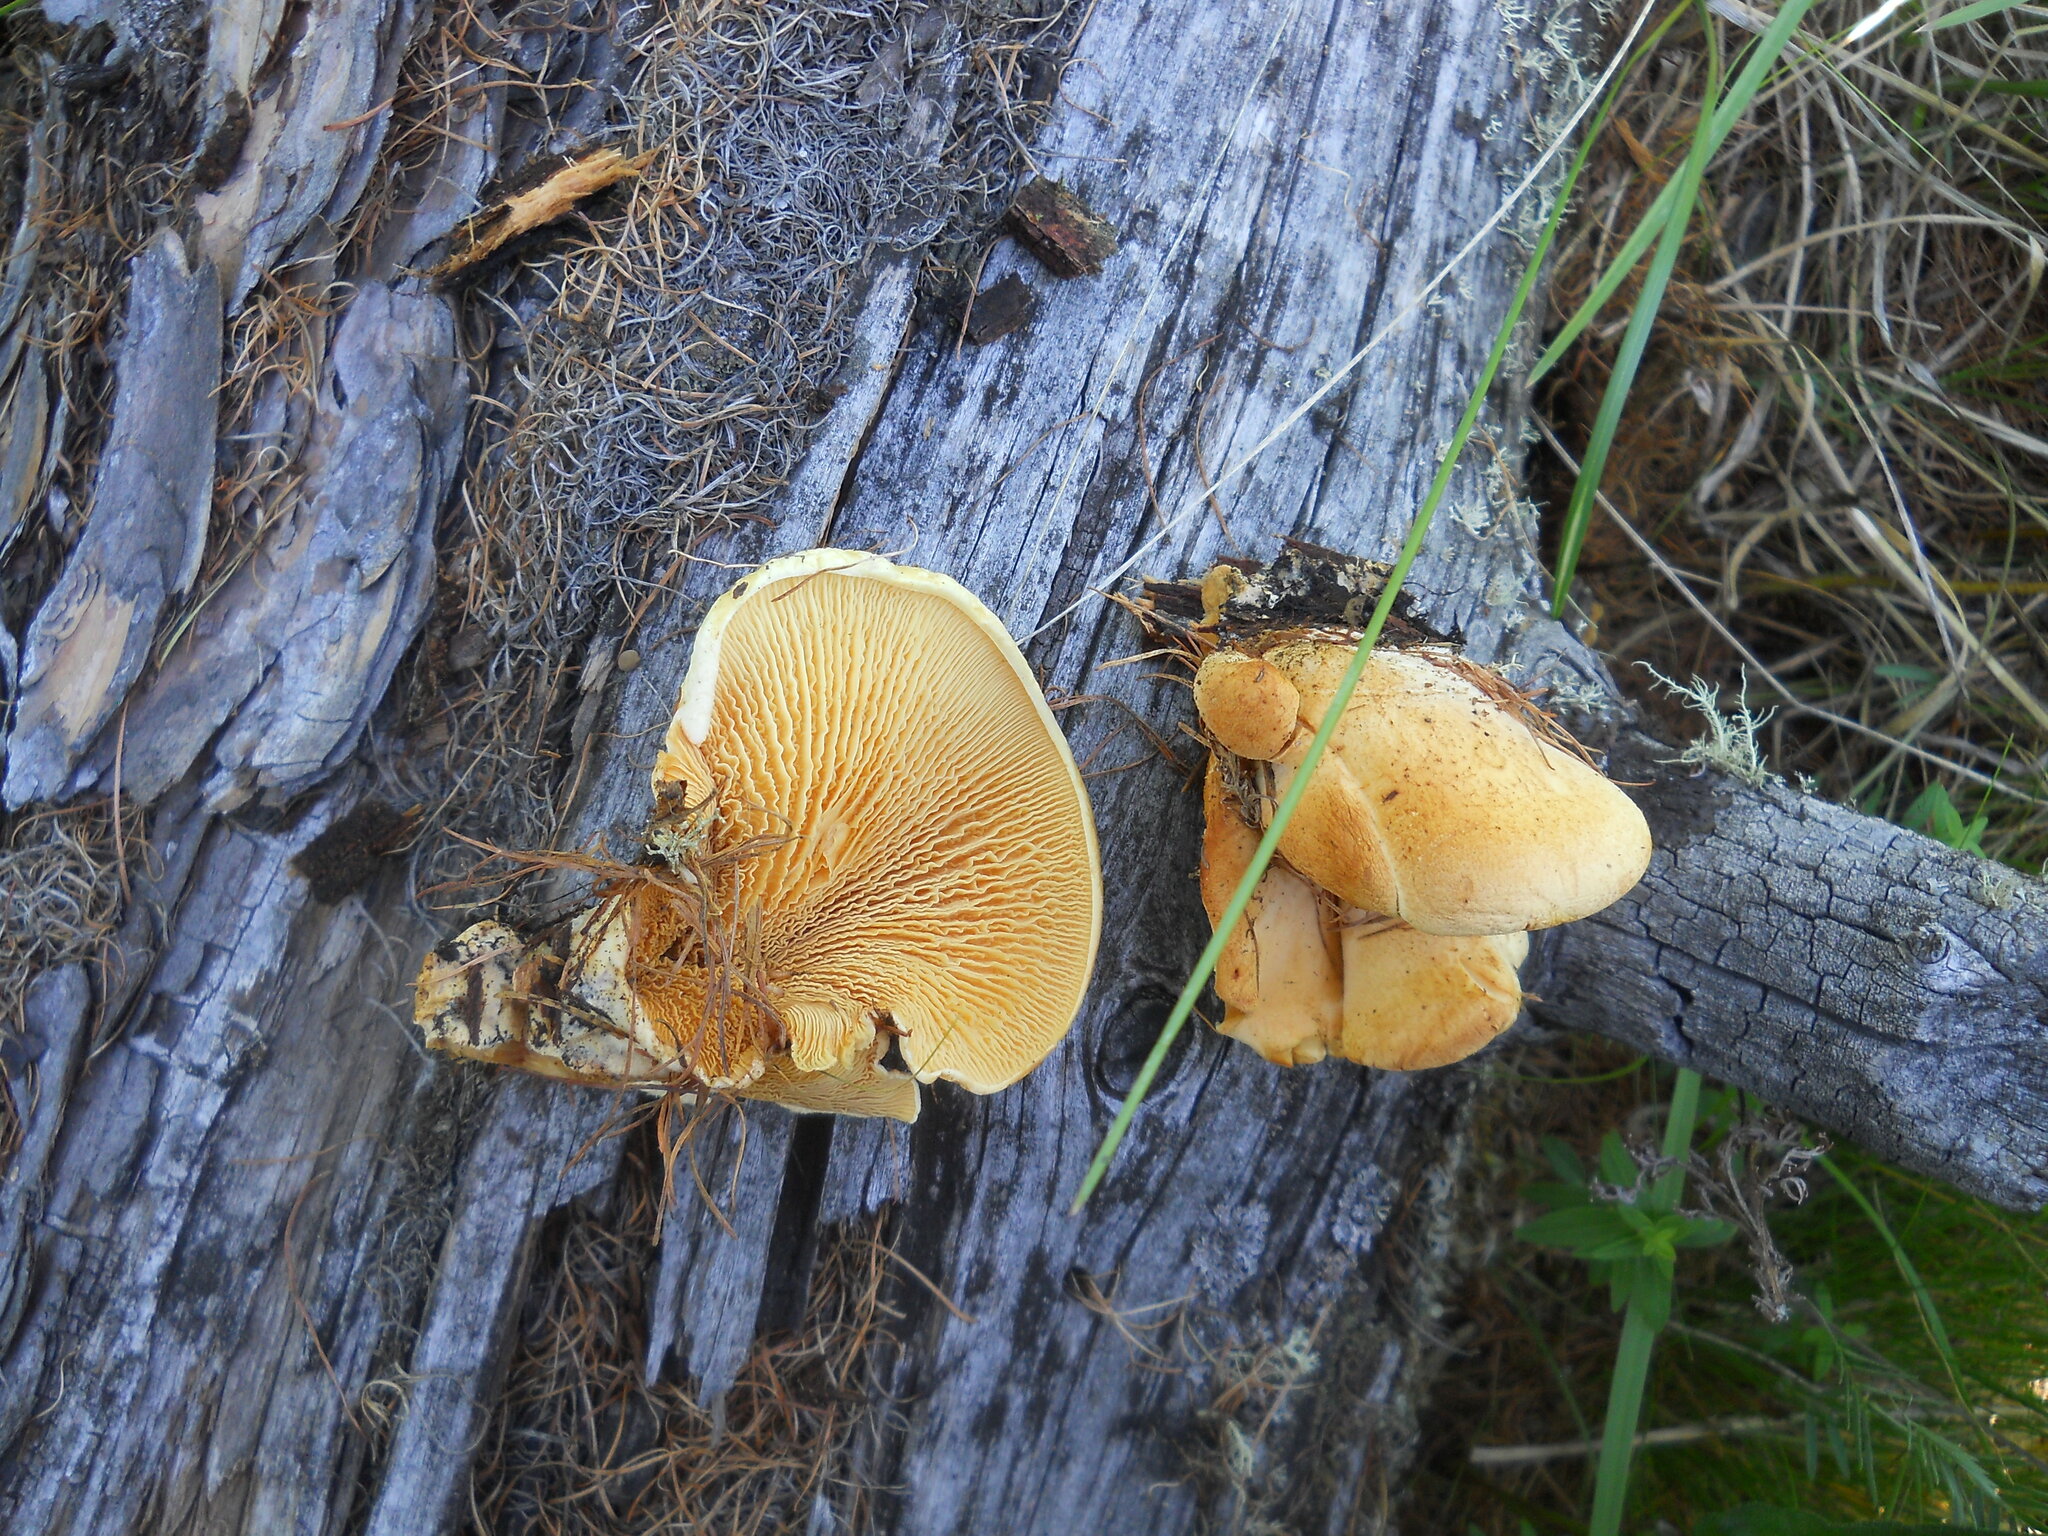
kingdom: Fungi
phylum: Basidiomycota
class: Agaricomycetes
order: Agaricales
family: Phyllotopsidaceae
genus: Phyllotopsis
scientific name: Phyllotopsis nidulans
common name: Orange mock oyster
